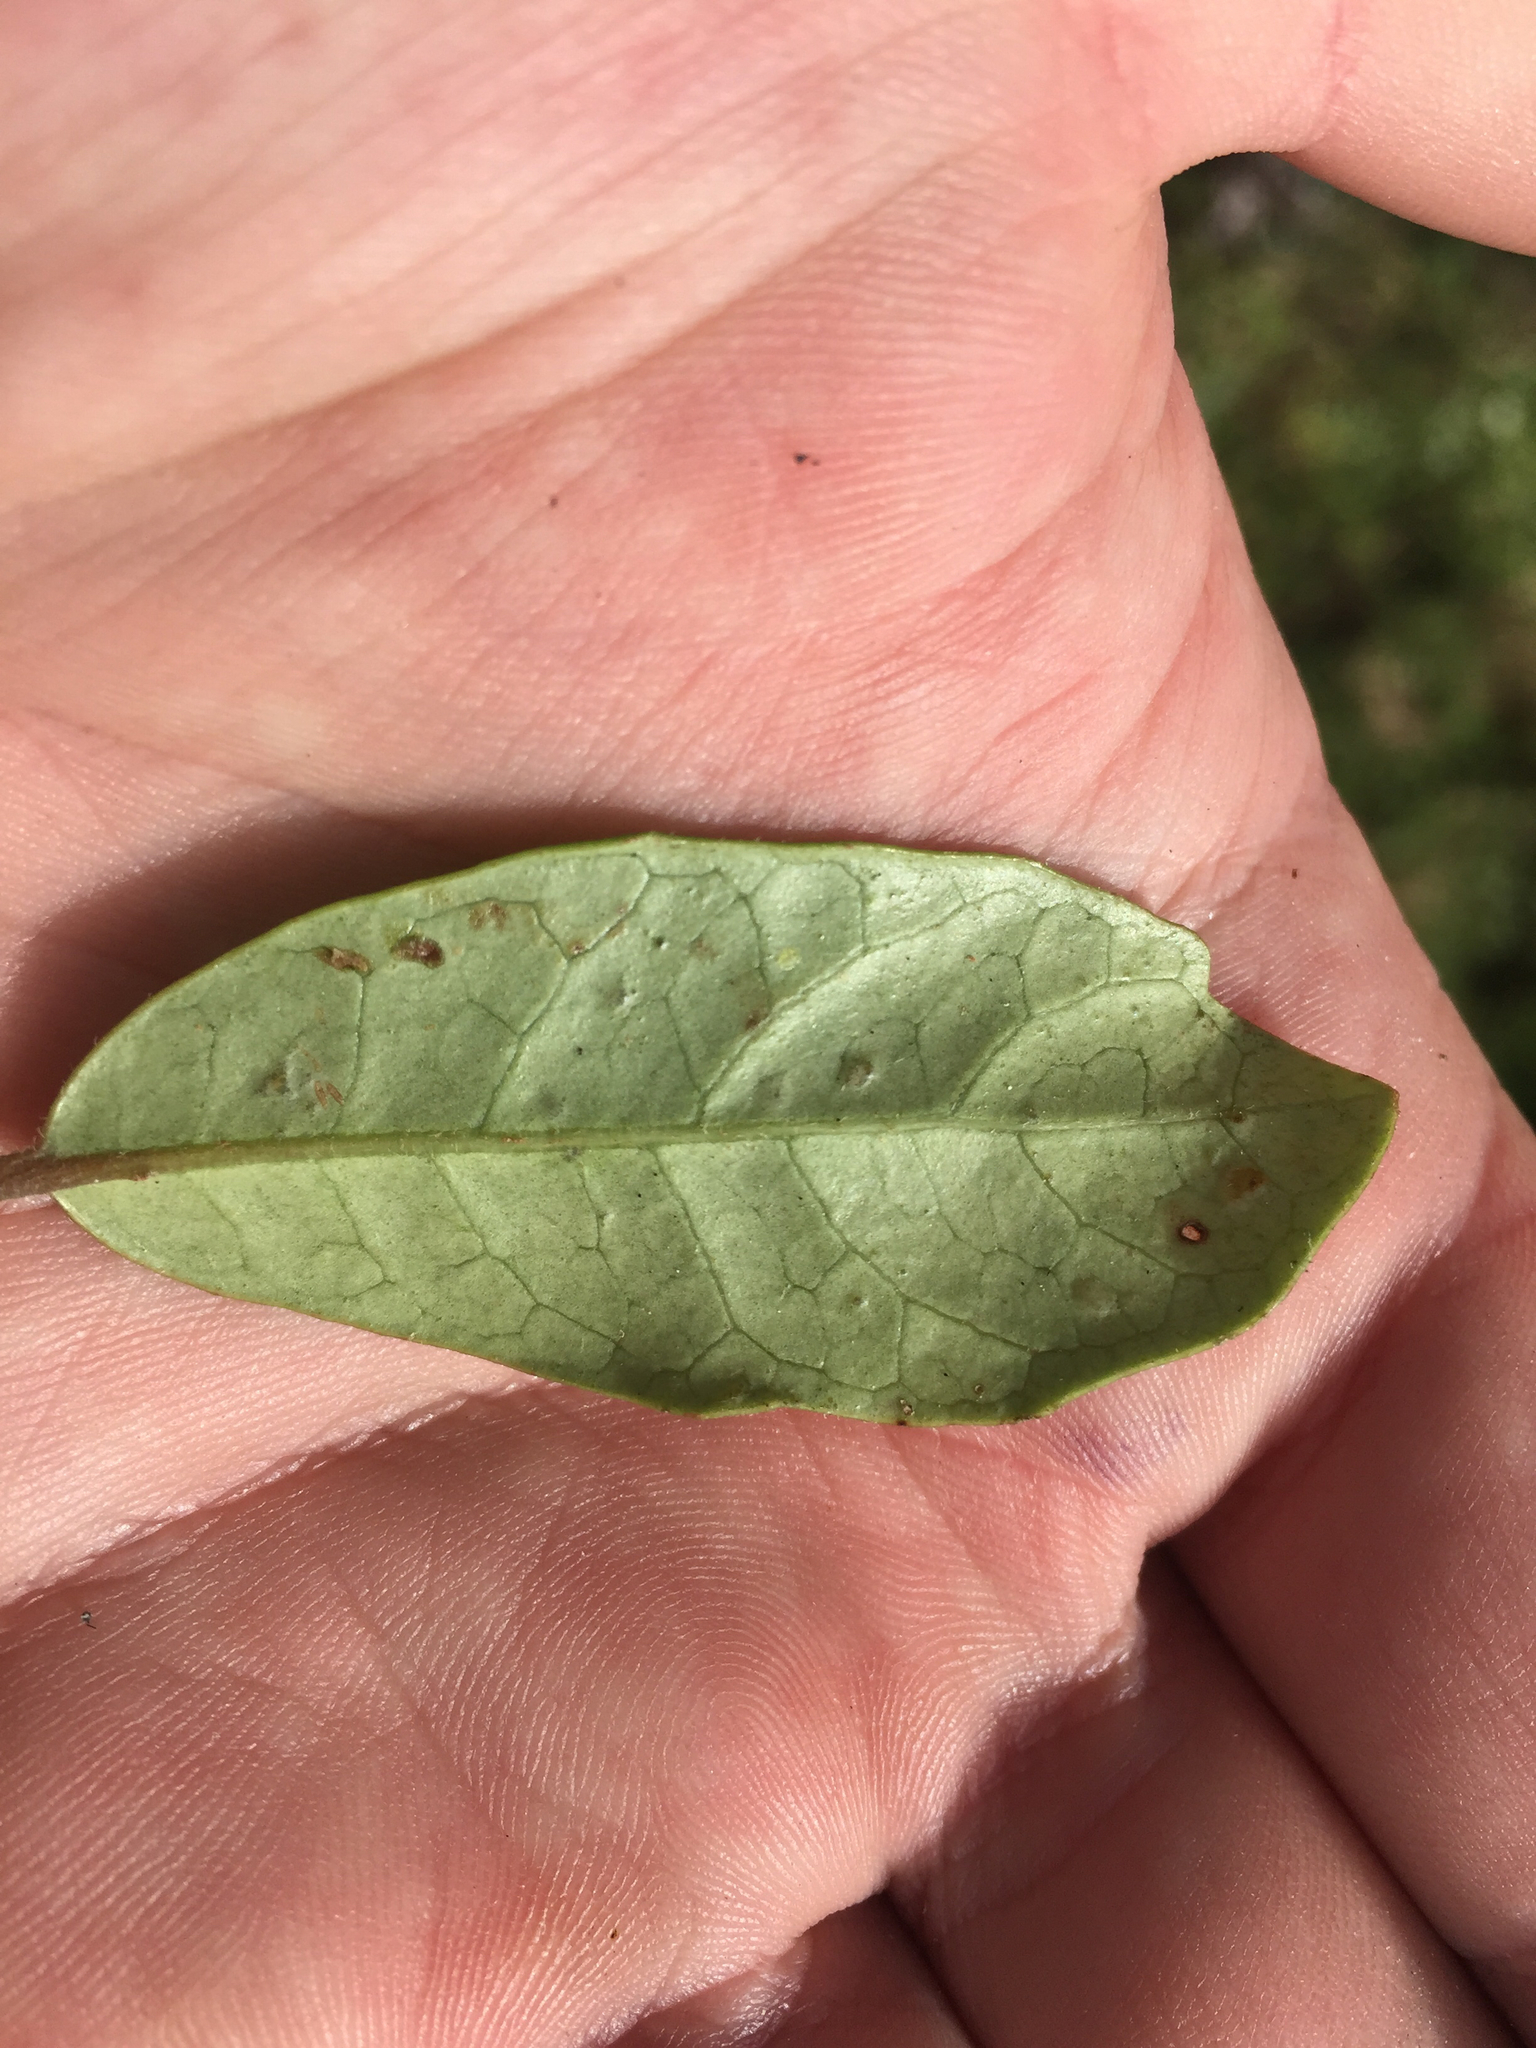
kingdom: Plantae
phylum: Tracheophyta
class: Magnoliopsida
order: Apiales
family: Pennantiaceae
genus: Pennantia
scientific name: Pennantia corymbosa
